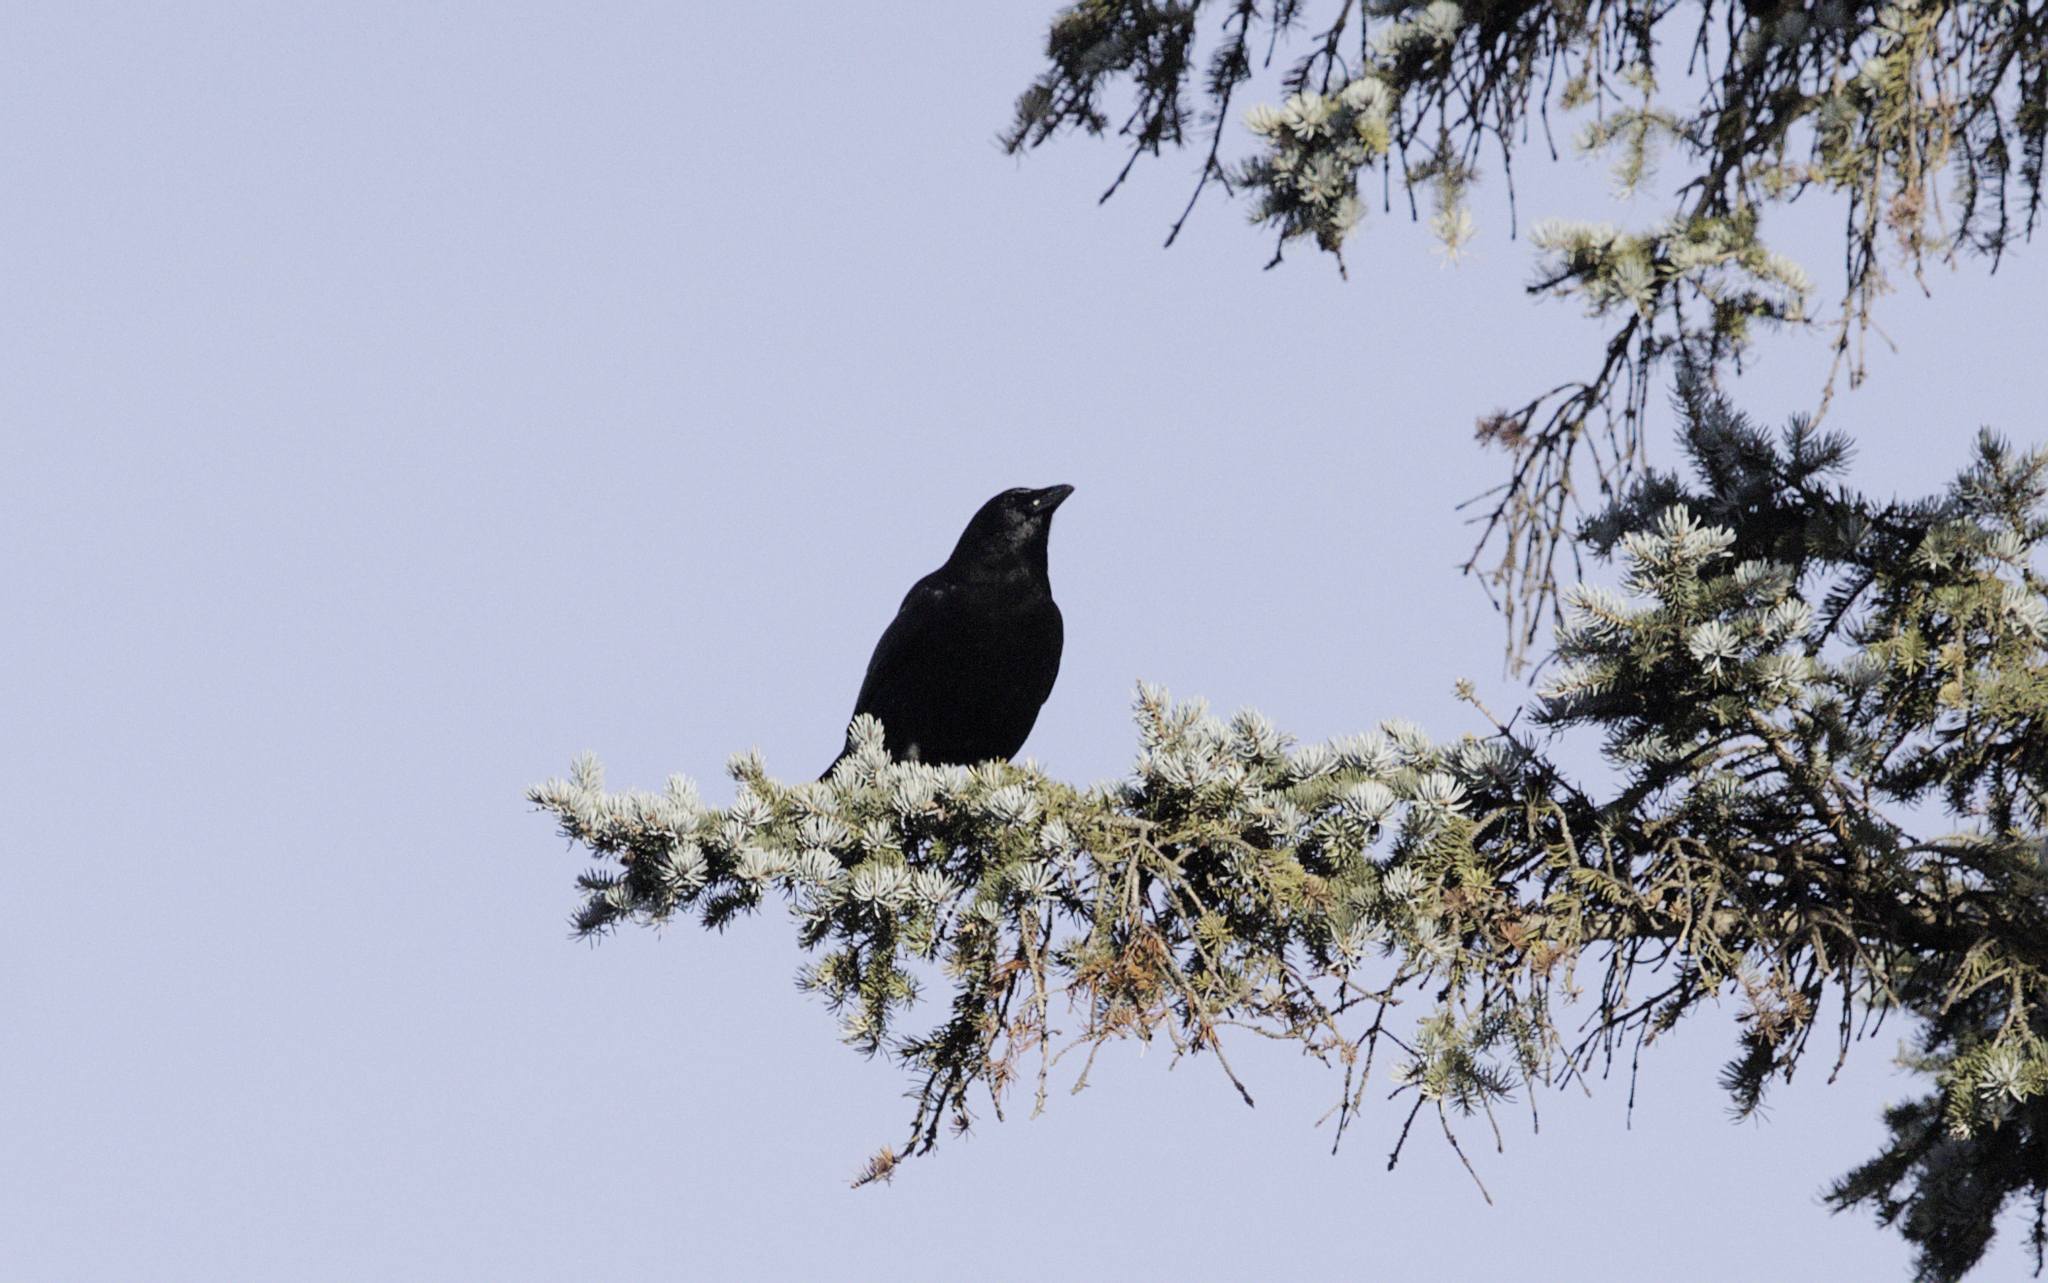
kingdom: Animalia
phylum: Chordata
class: Aves
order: Passeriformes
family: Corvidae
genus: Corvus
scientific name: Corvus brachyrhynchos
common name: American crow
